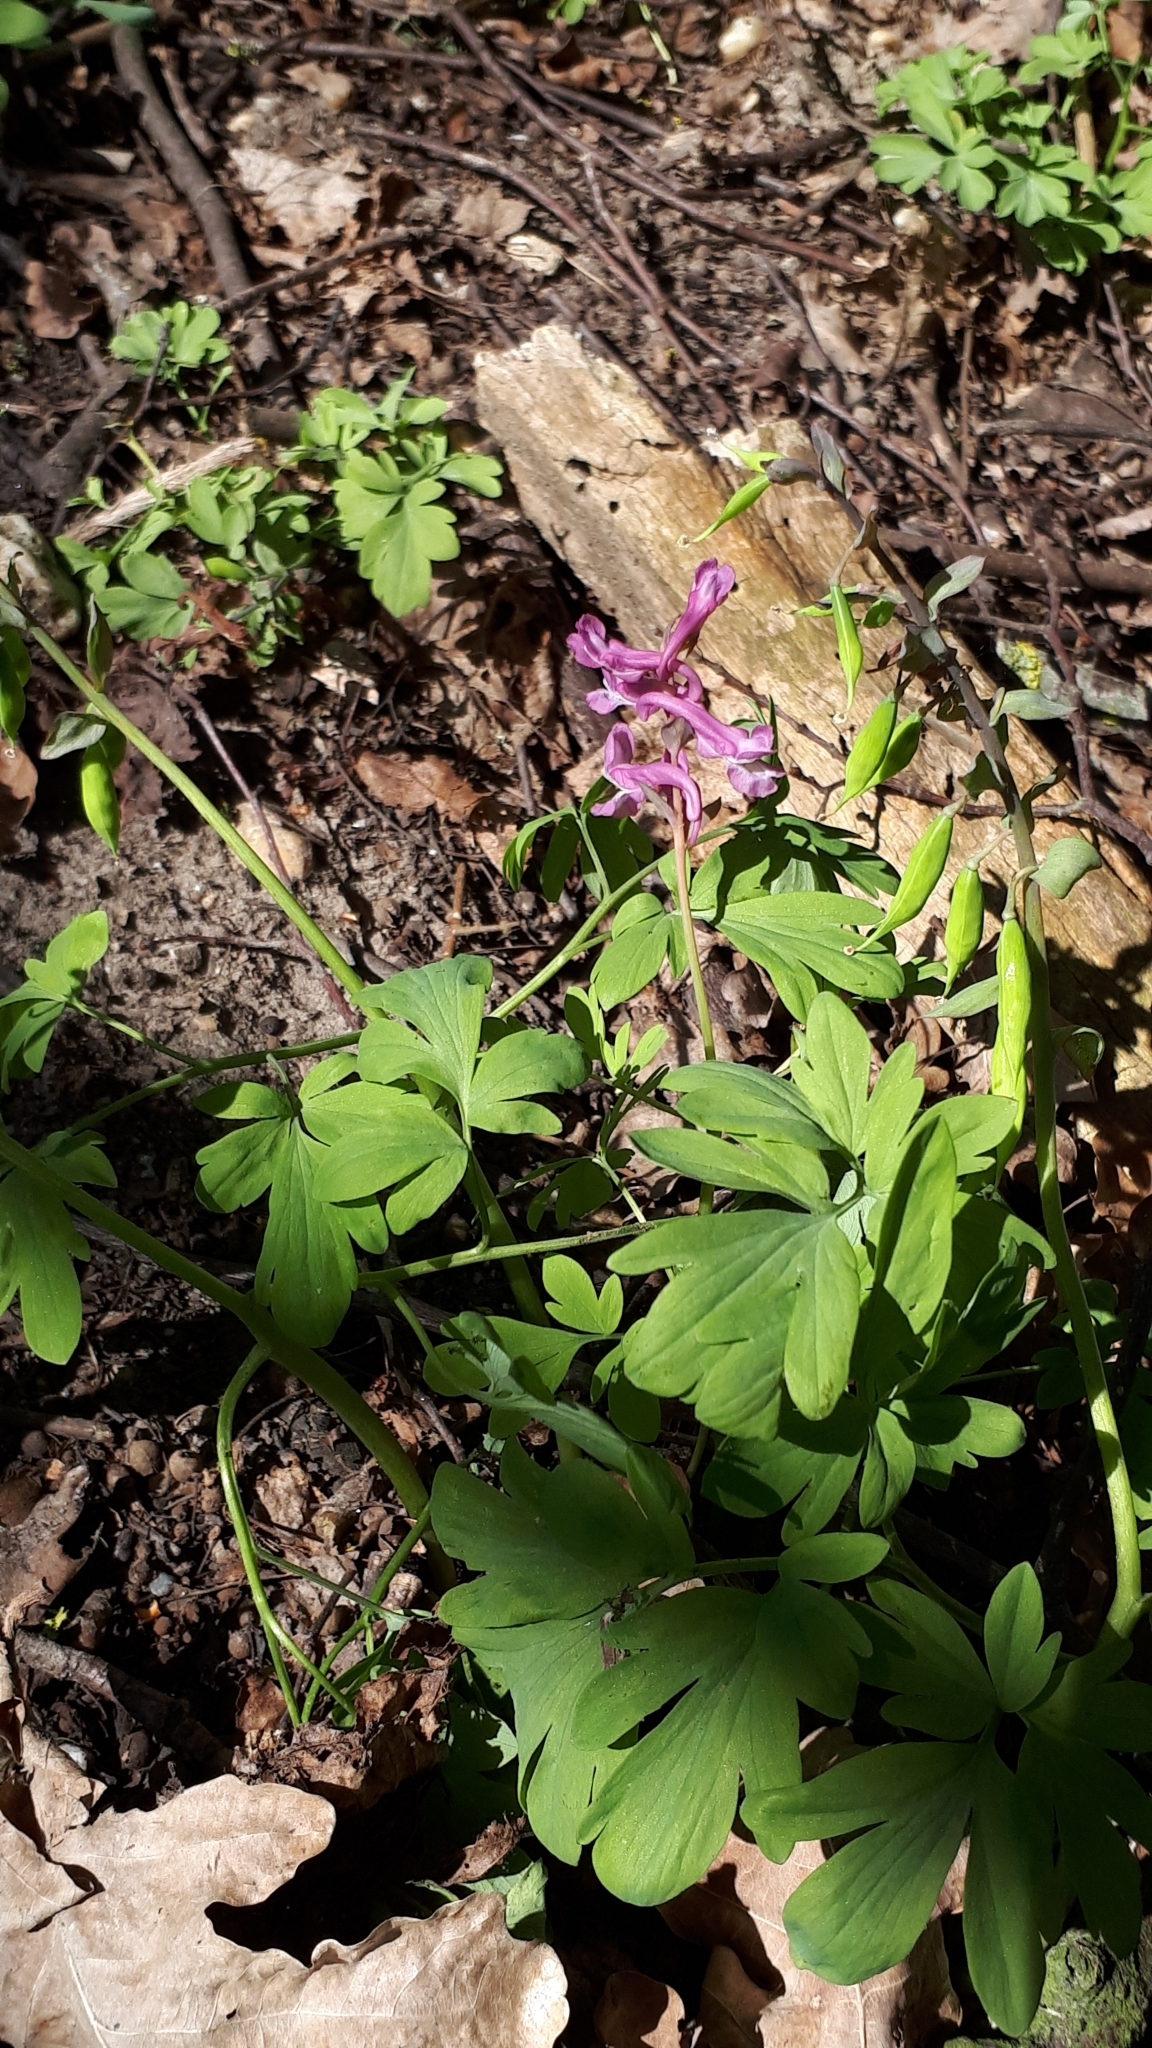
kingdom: Plantae
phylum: Tracheophyta
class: Magnoliopsida
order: Ranunculales
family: Papaveraceae
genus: Corydalis
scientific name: Corydalis cava
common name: Hollowroot
